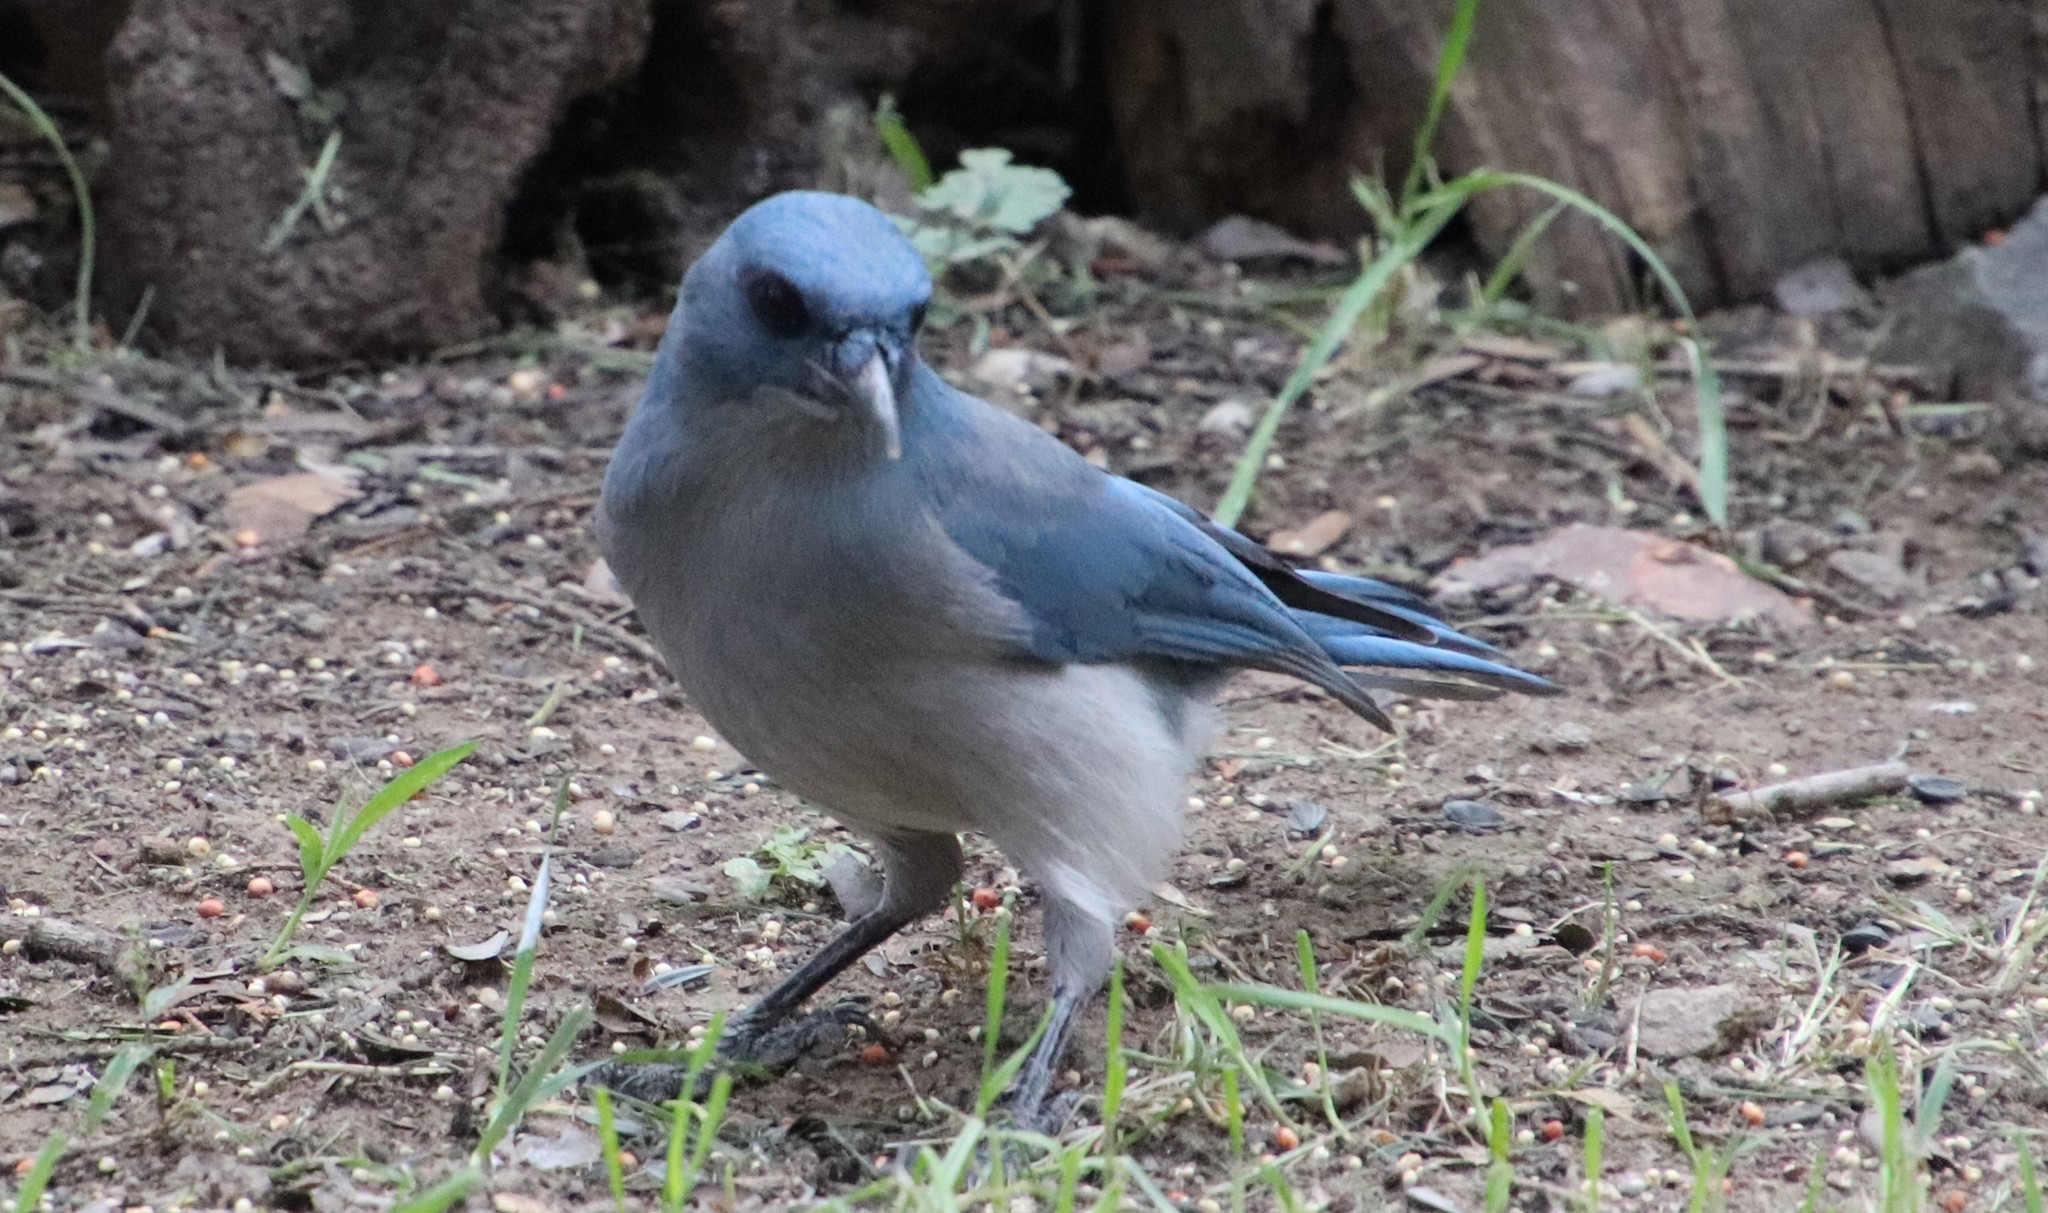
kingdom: Animalia
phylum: Chordata
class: Aves
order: Passeriformes
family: Corvidae
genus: Aphelocoma
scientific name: Aphelocoma wollweberi
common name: Mexican jay
